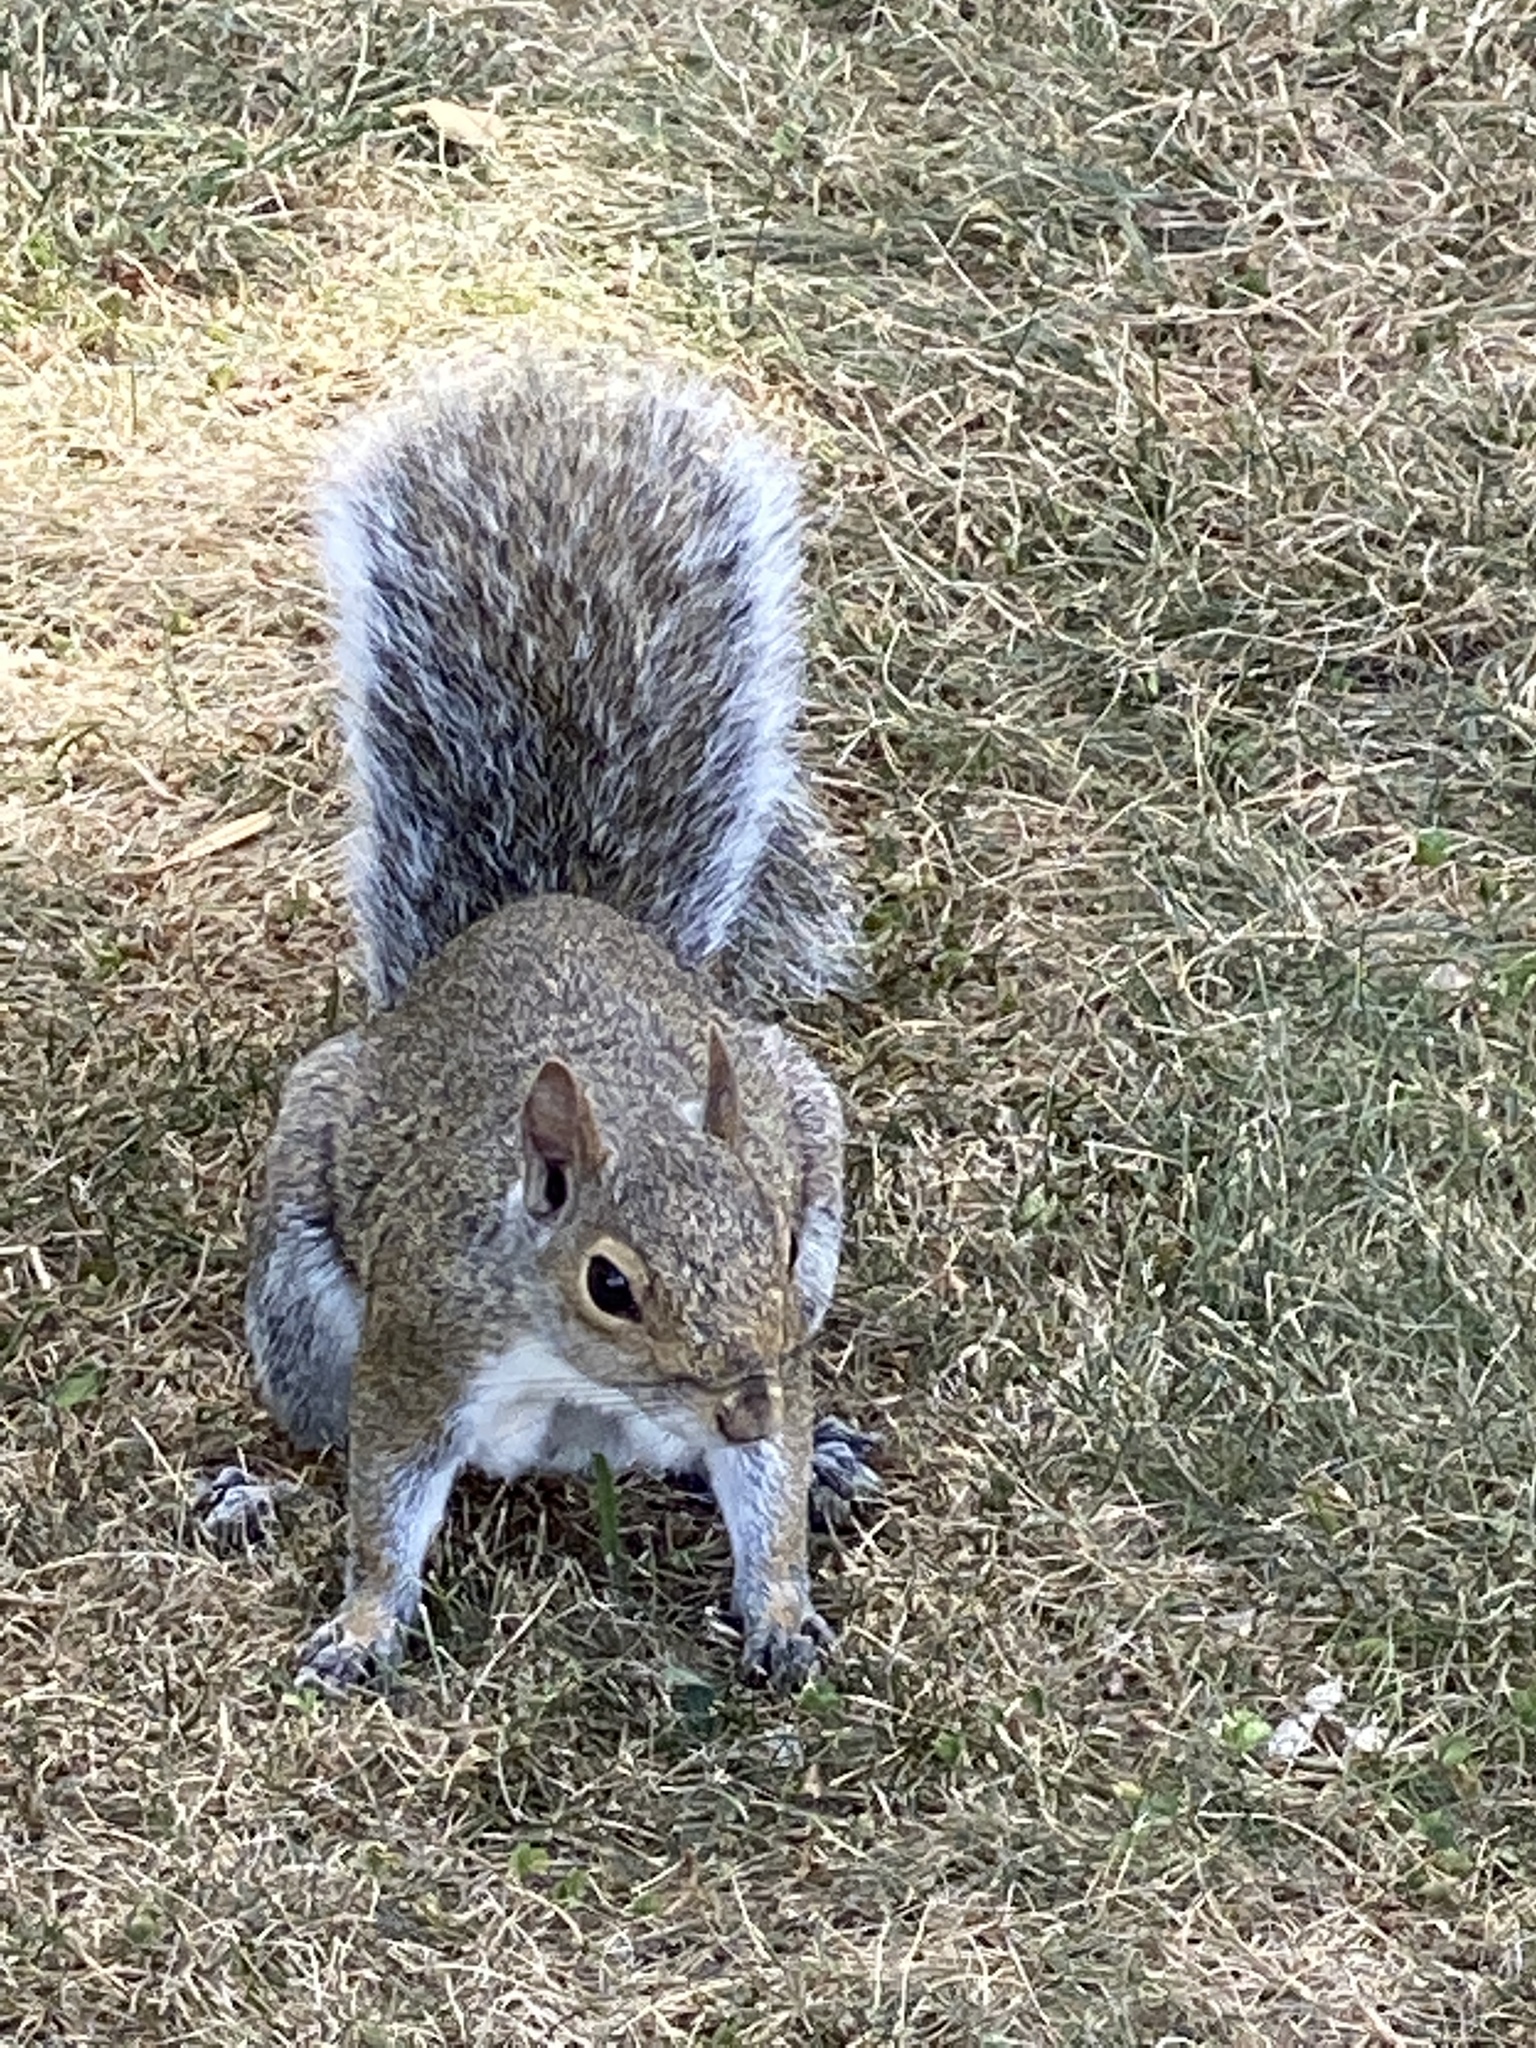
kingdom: Animalia
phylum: Chordata
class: Mammalia
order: Rodentia
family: Sciuridae
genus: Sciurus
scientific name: Sciurus carolinensis
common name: Eastern gray squirrel
